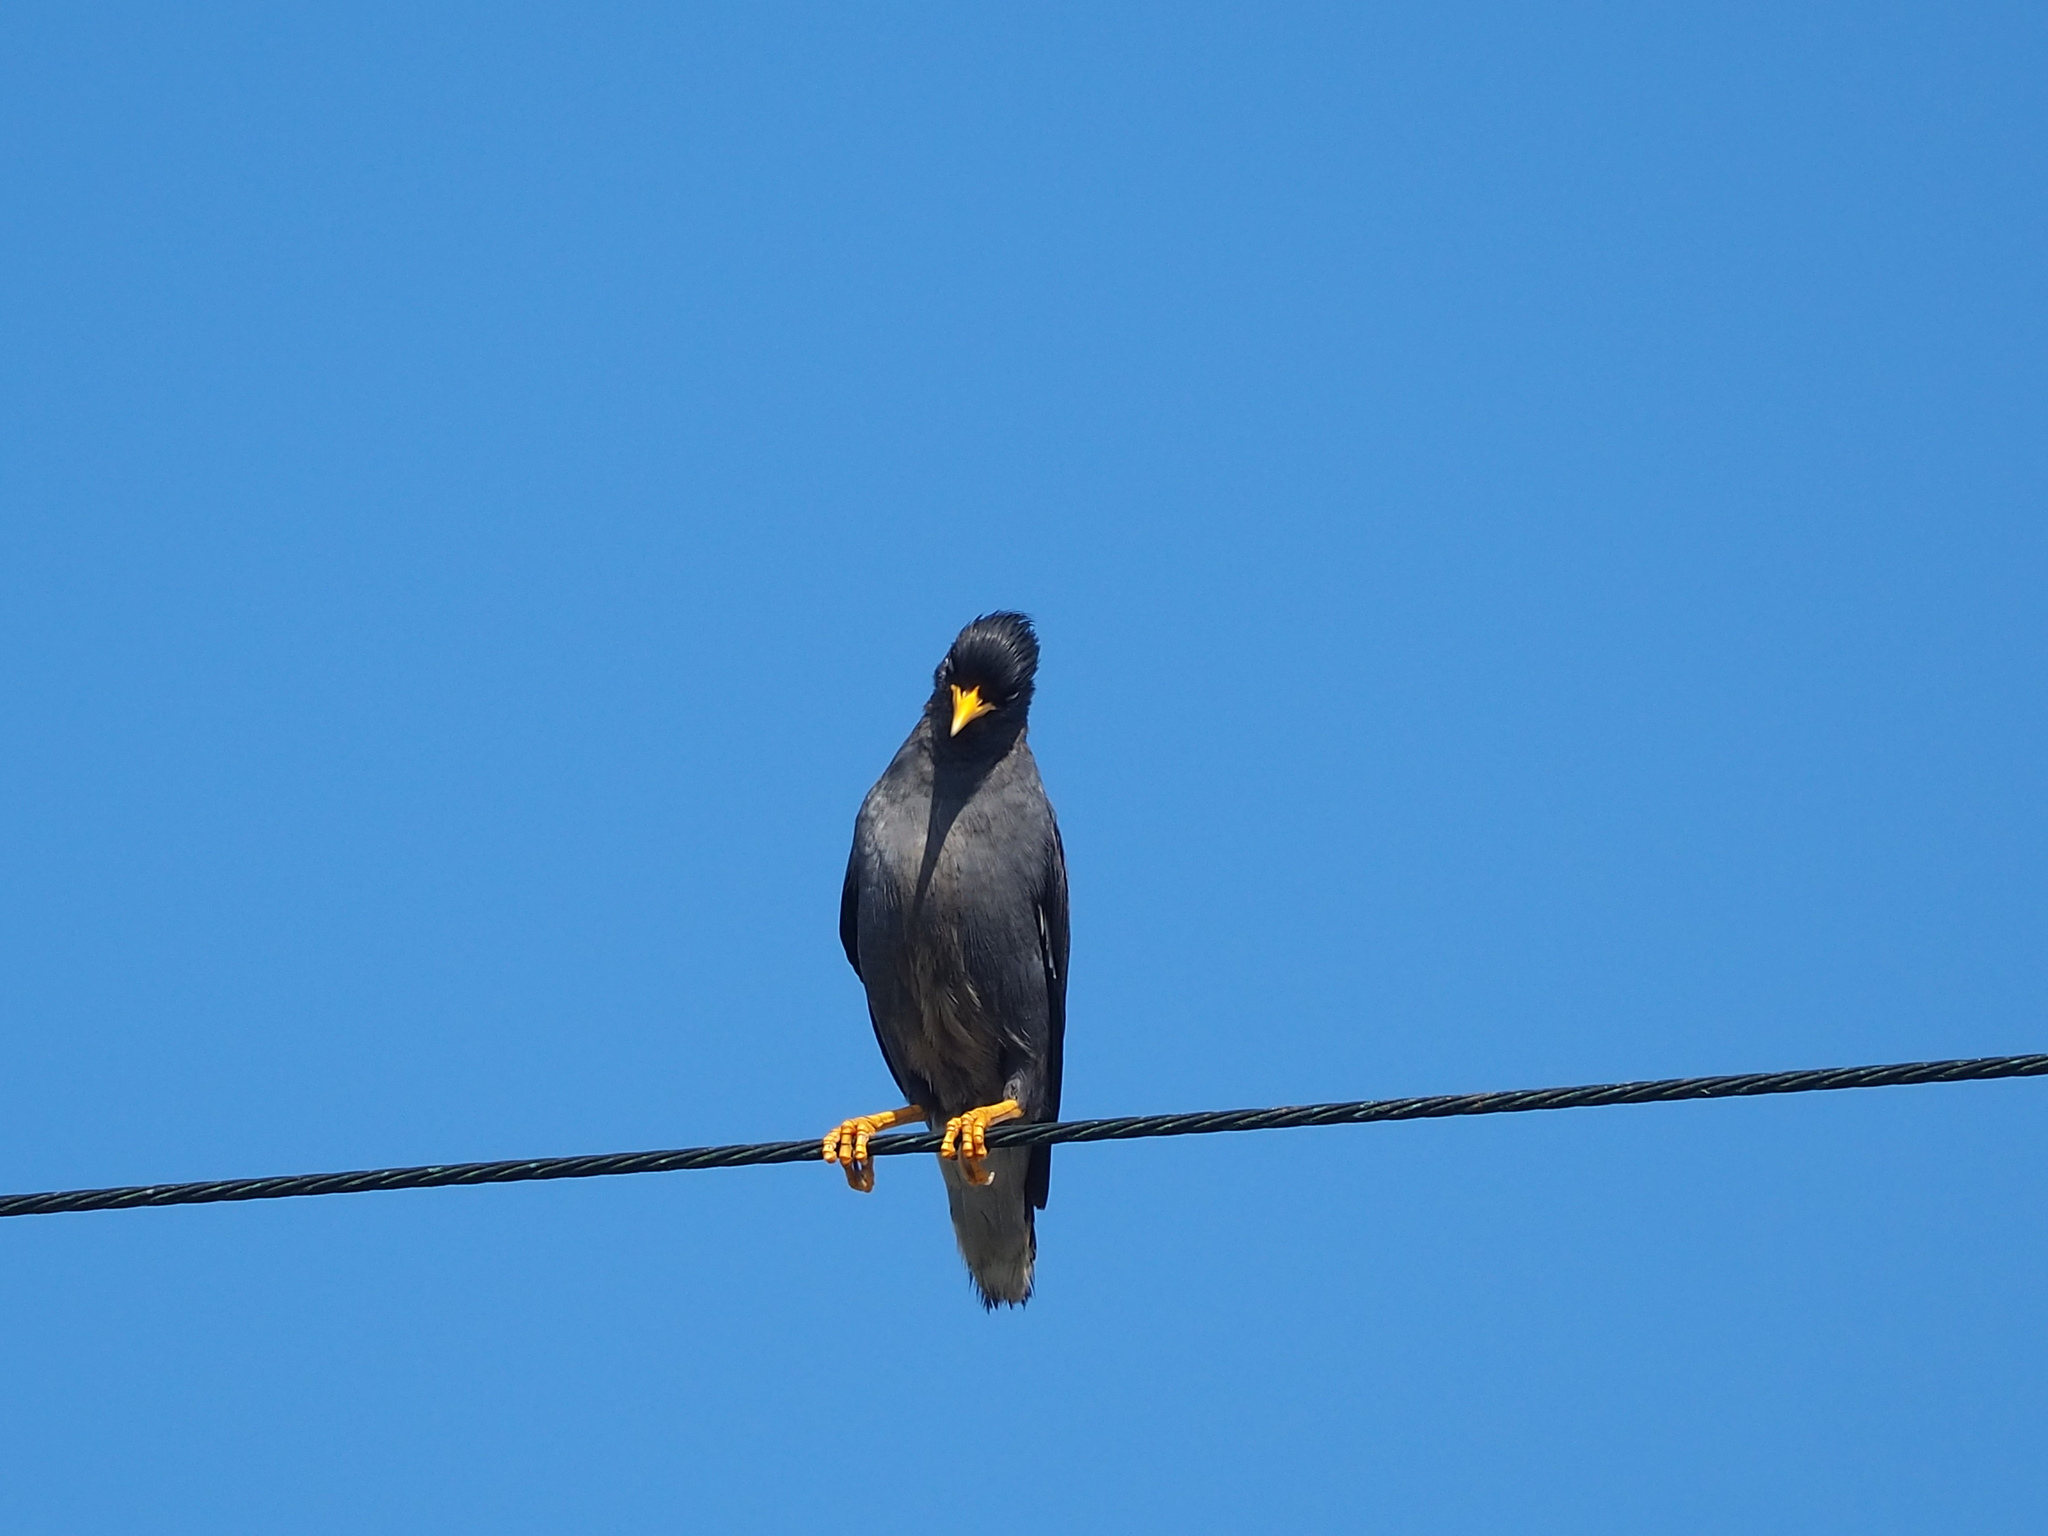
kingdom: Animalia
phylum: Chordata
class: Aves
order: Passeriformes
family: Sturnidae
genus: Acridotheres
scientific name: Acridotheres javanicus
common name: Javan myna
